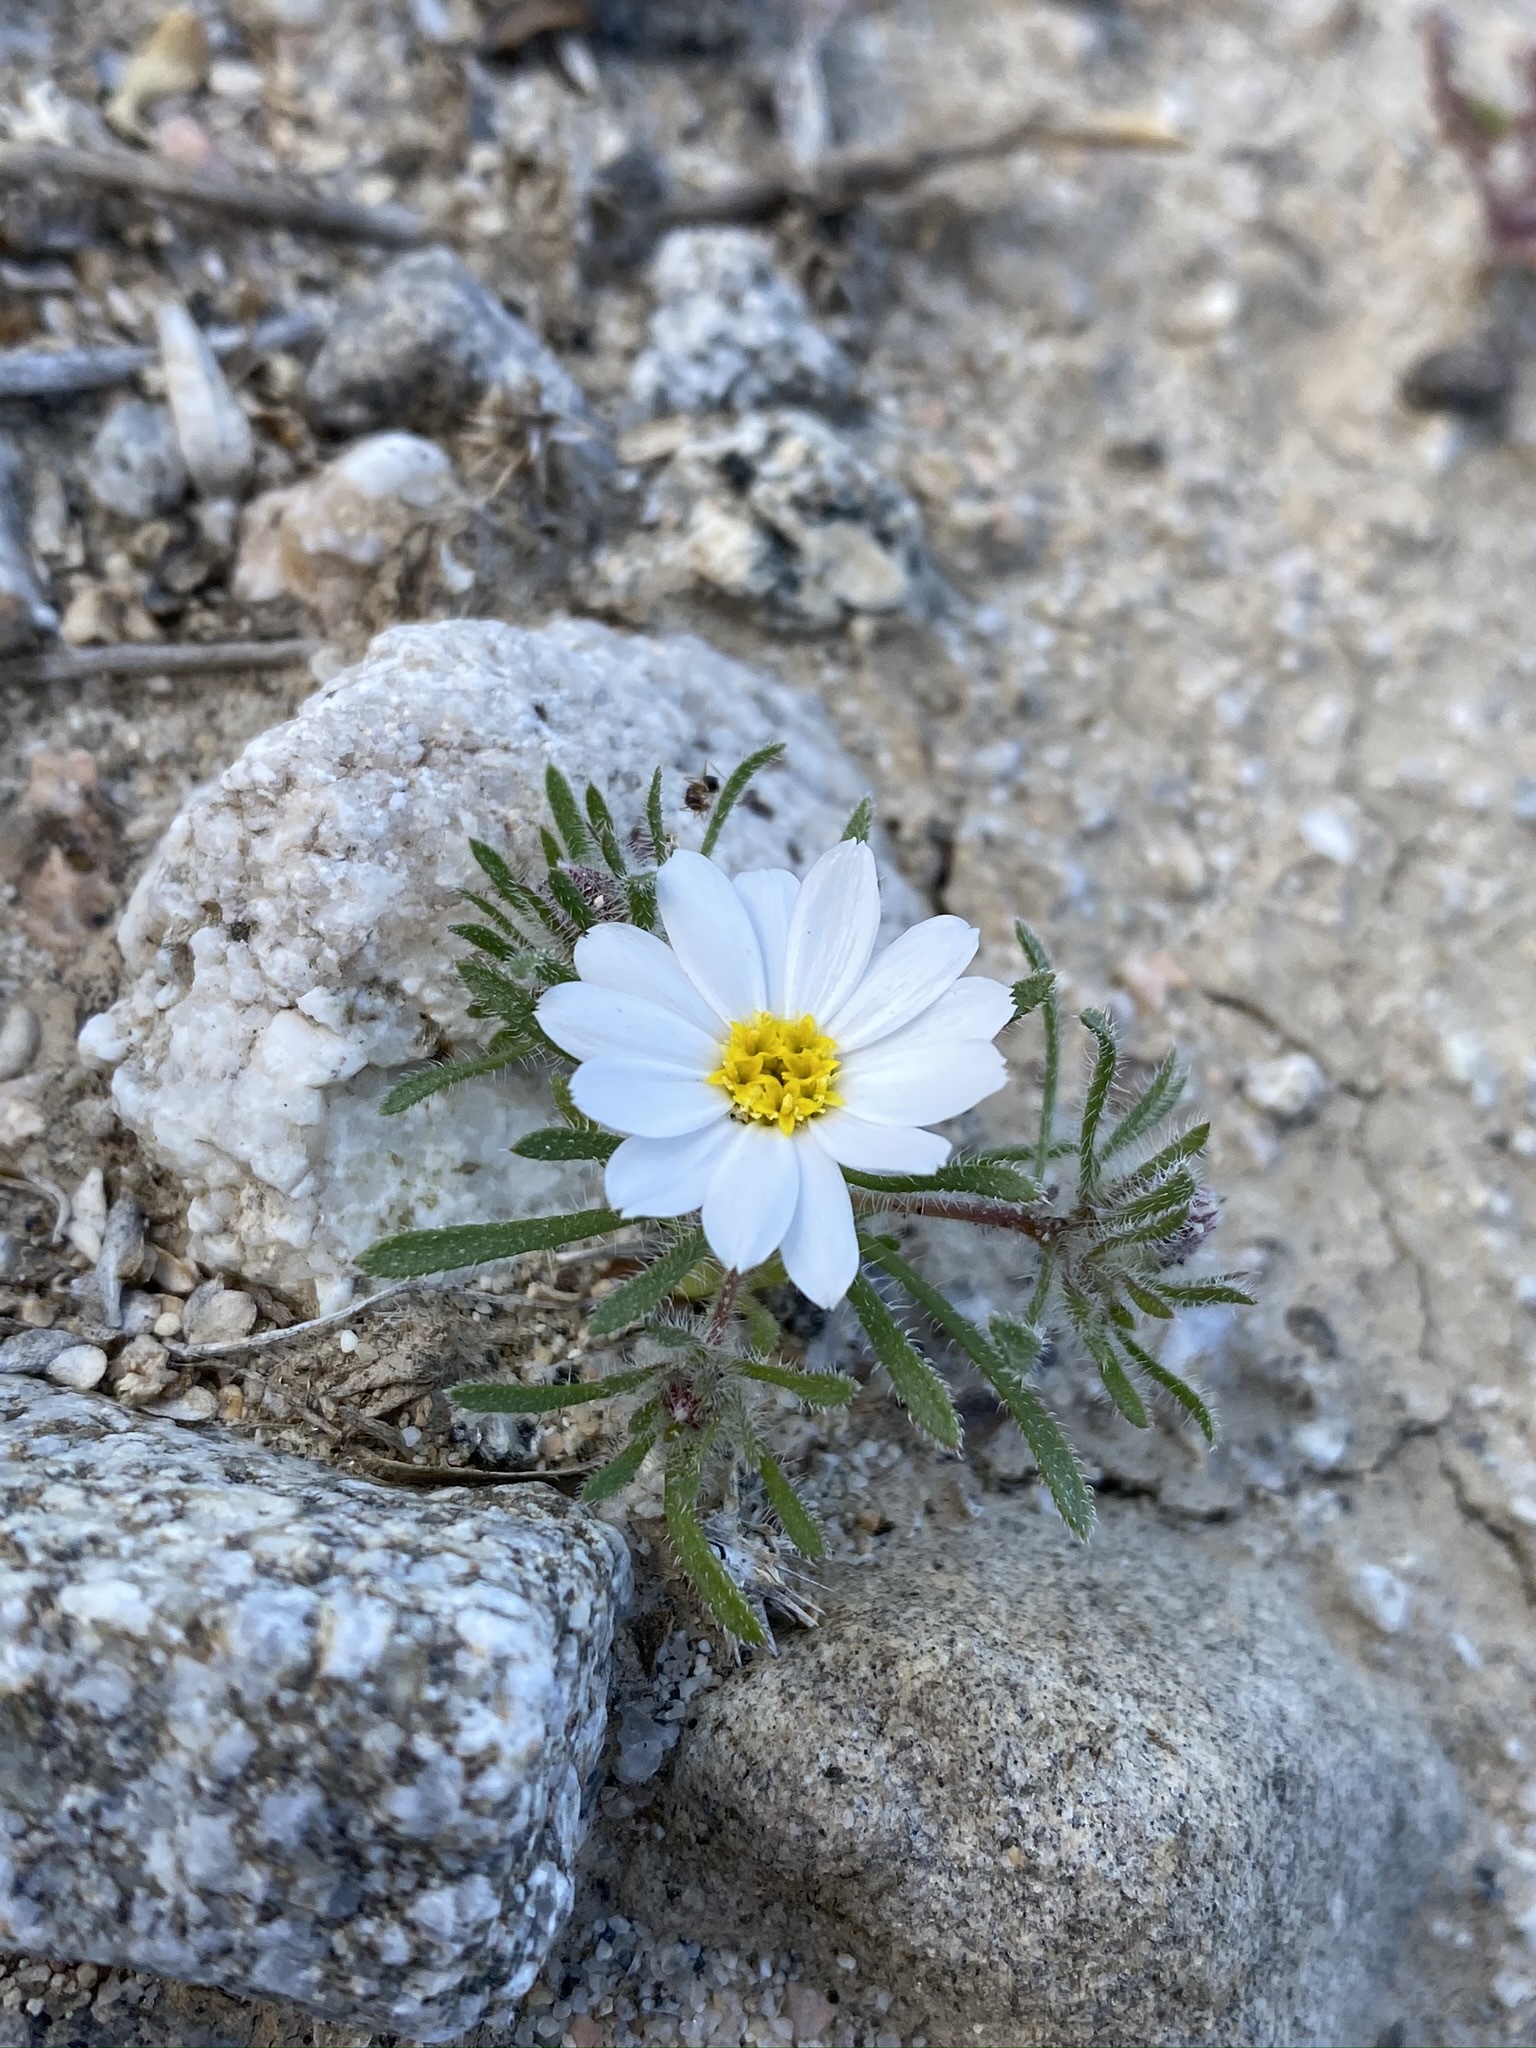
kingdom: Plantae
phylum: Tracheophyta
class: Magnoliopsida
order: Asterales
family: Asteraceae
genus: Monoptilon
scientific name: Monoptilon bellioides
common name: Bristly desertstar
